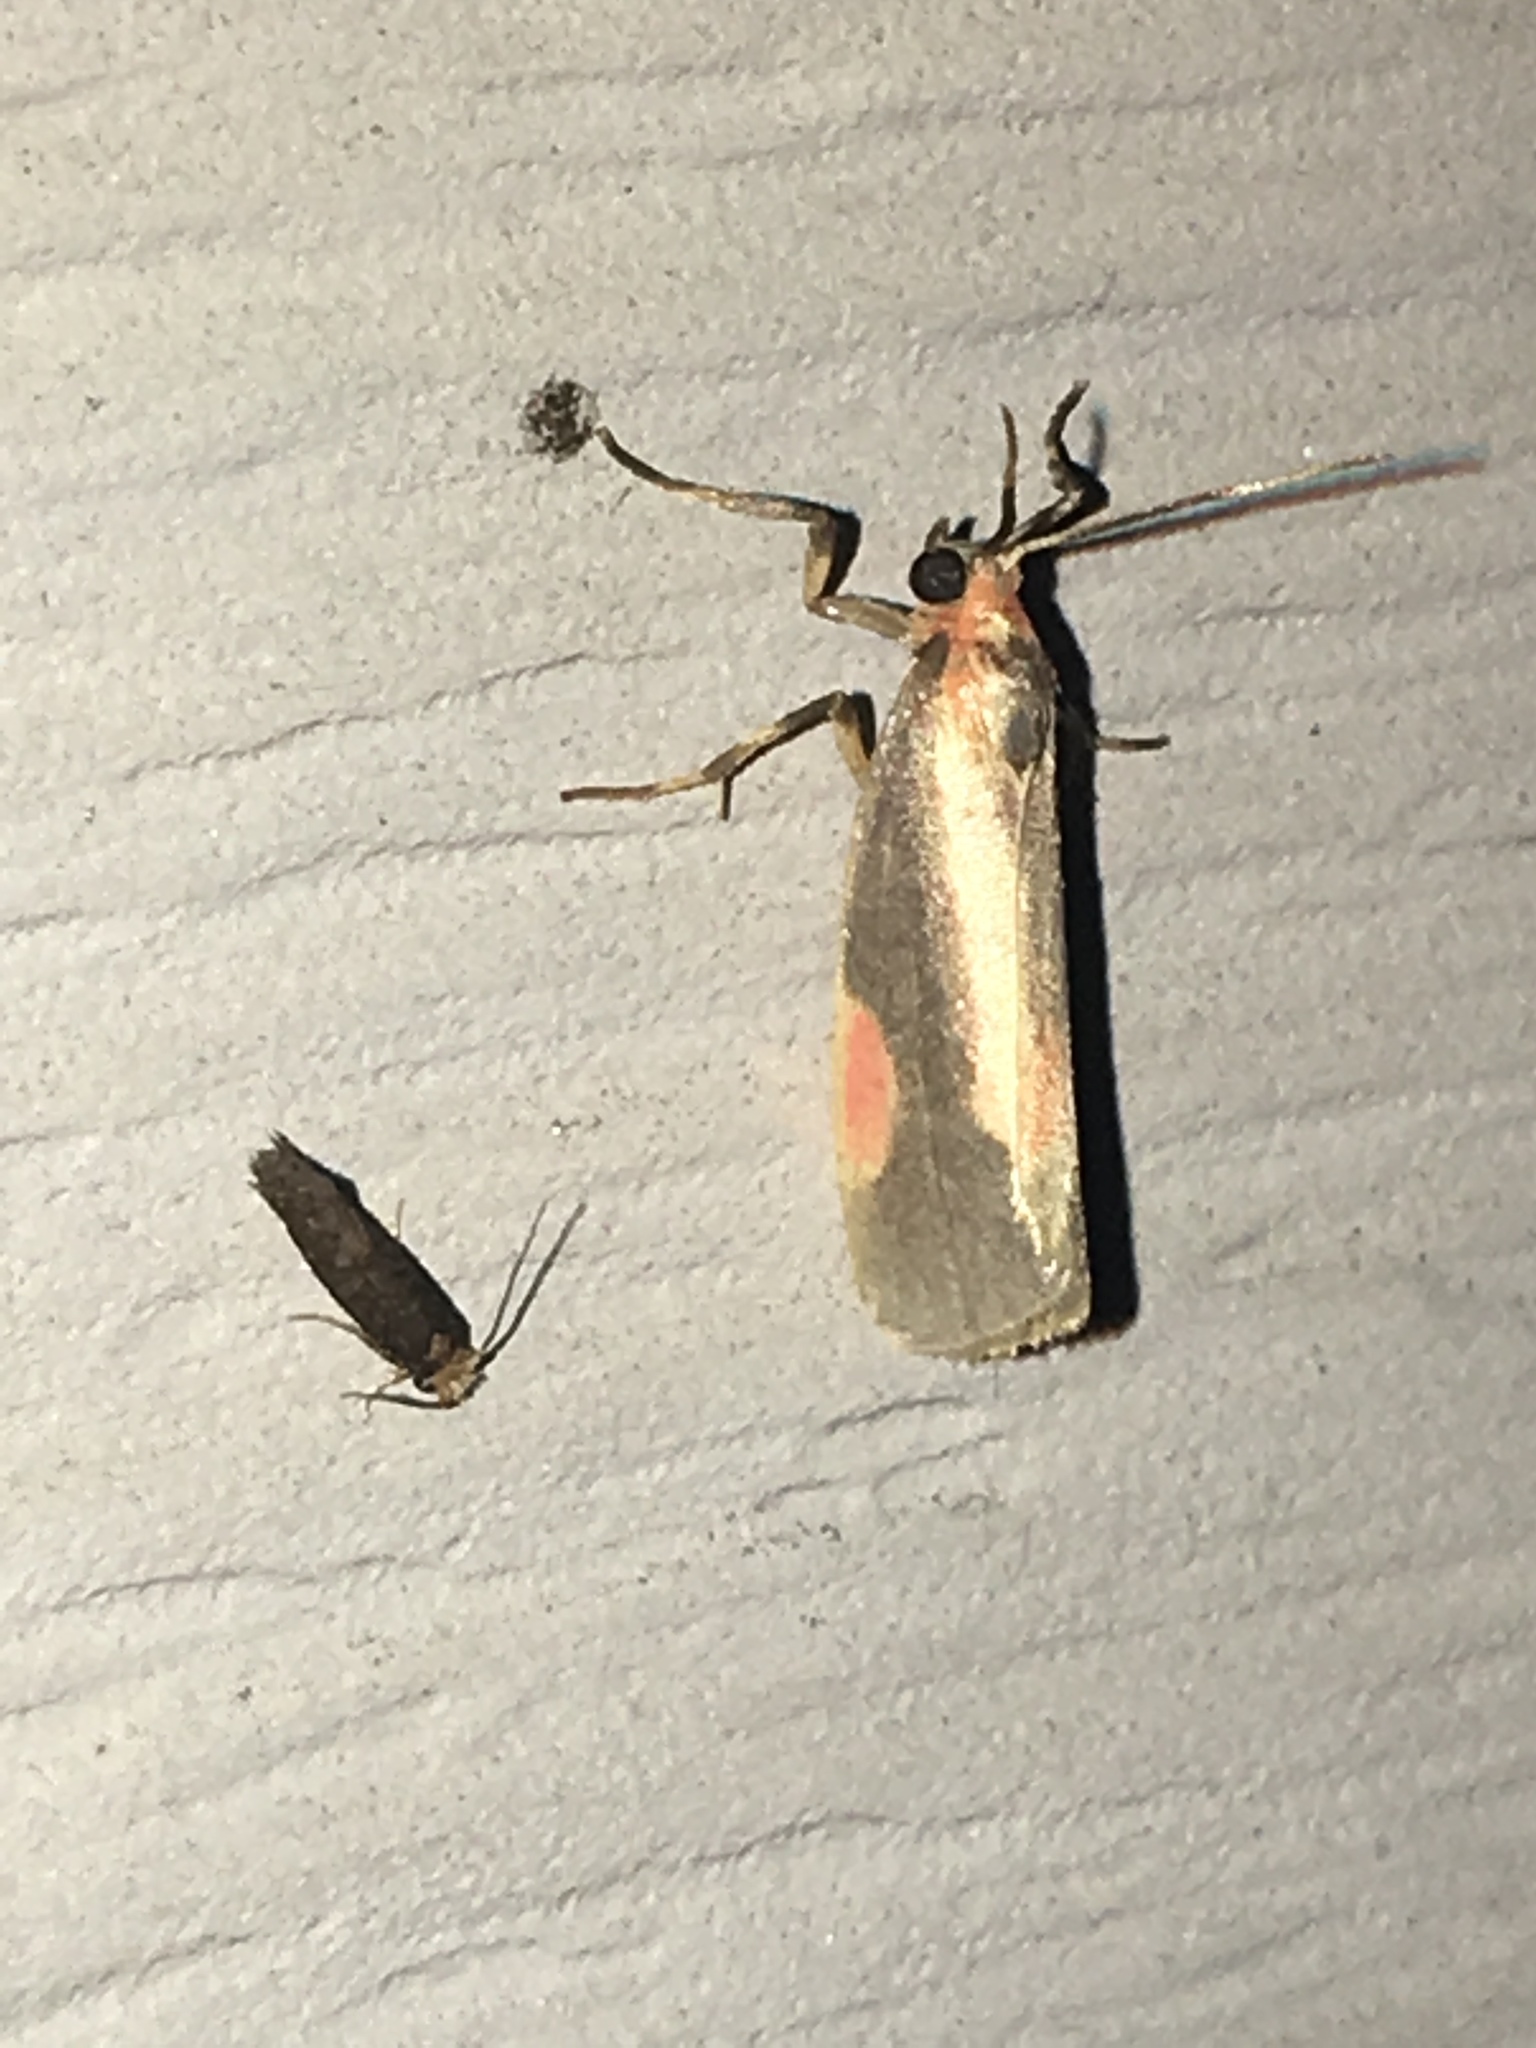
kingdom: Animalia
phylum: Arthropoda
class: Insecta
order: Lepidoptera
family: Erebidae
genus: Cisthene
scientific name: Cisthene packardii
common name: Packard's lichen moth
